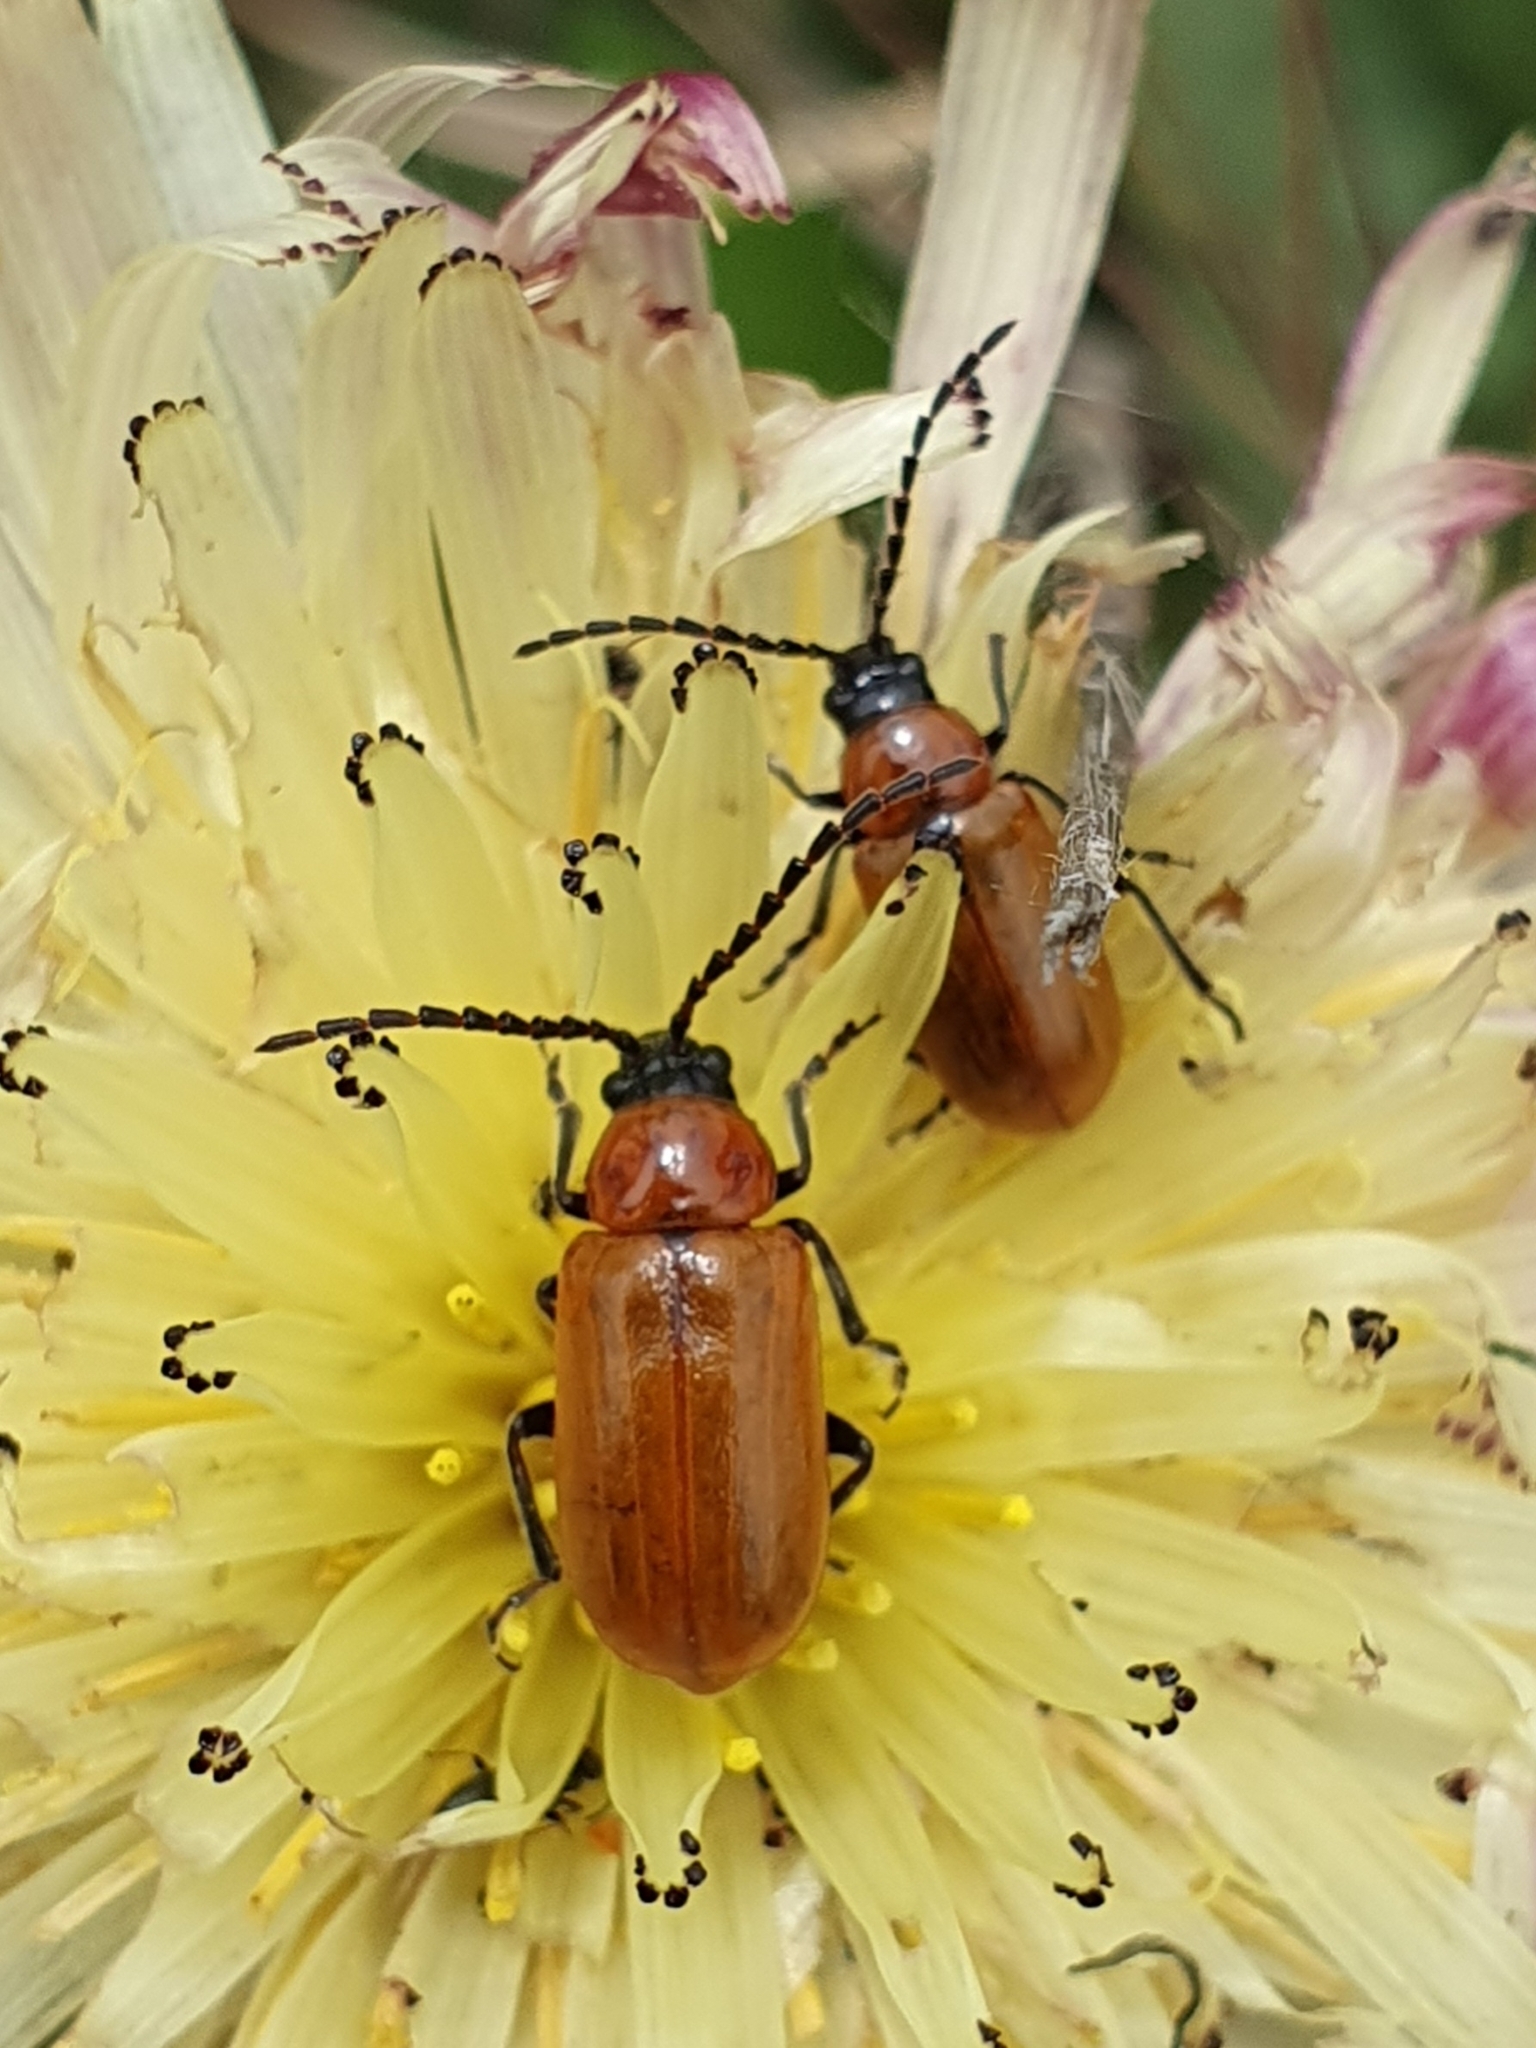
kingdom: Animalia
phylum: Arthropoda
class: Insecta
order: Coleoptera
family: Chrysomelidae
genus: Exosoma
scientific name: Exosoma lusitanicum
